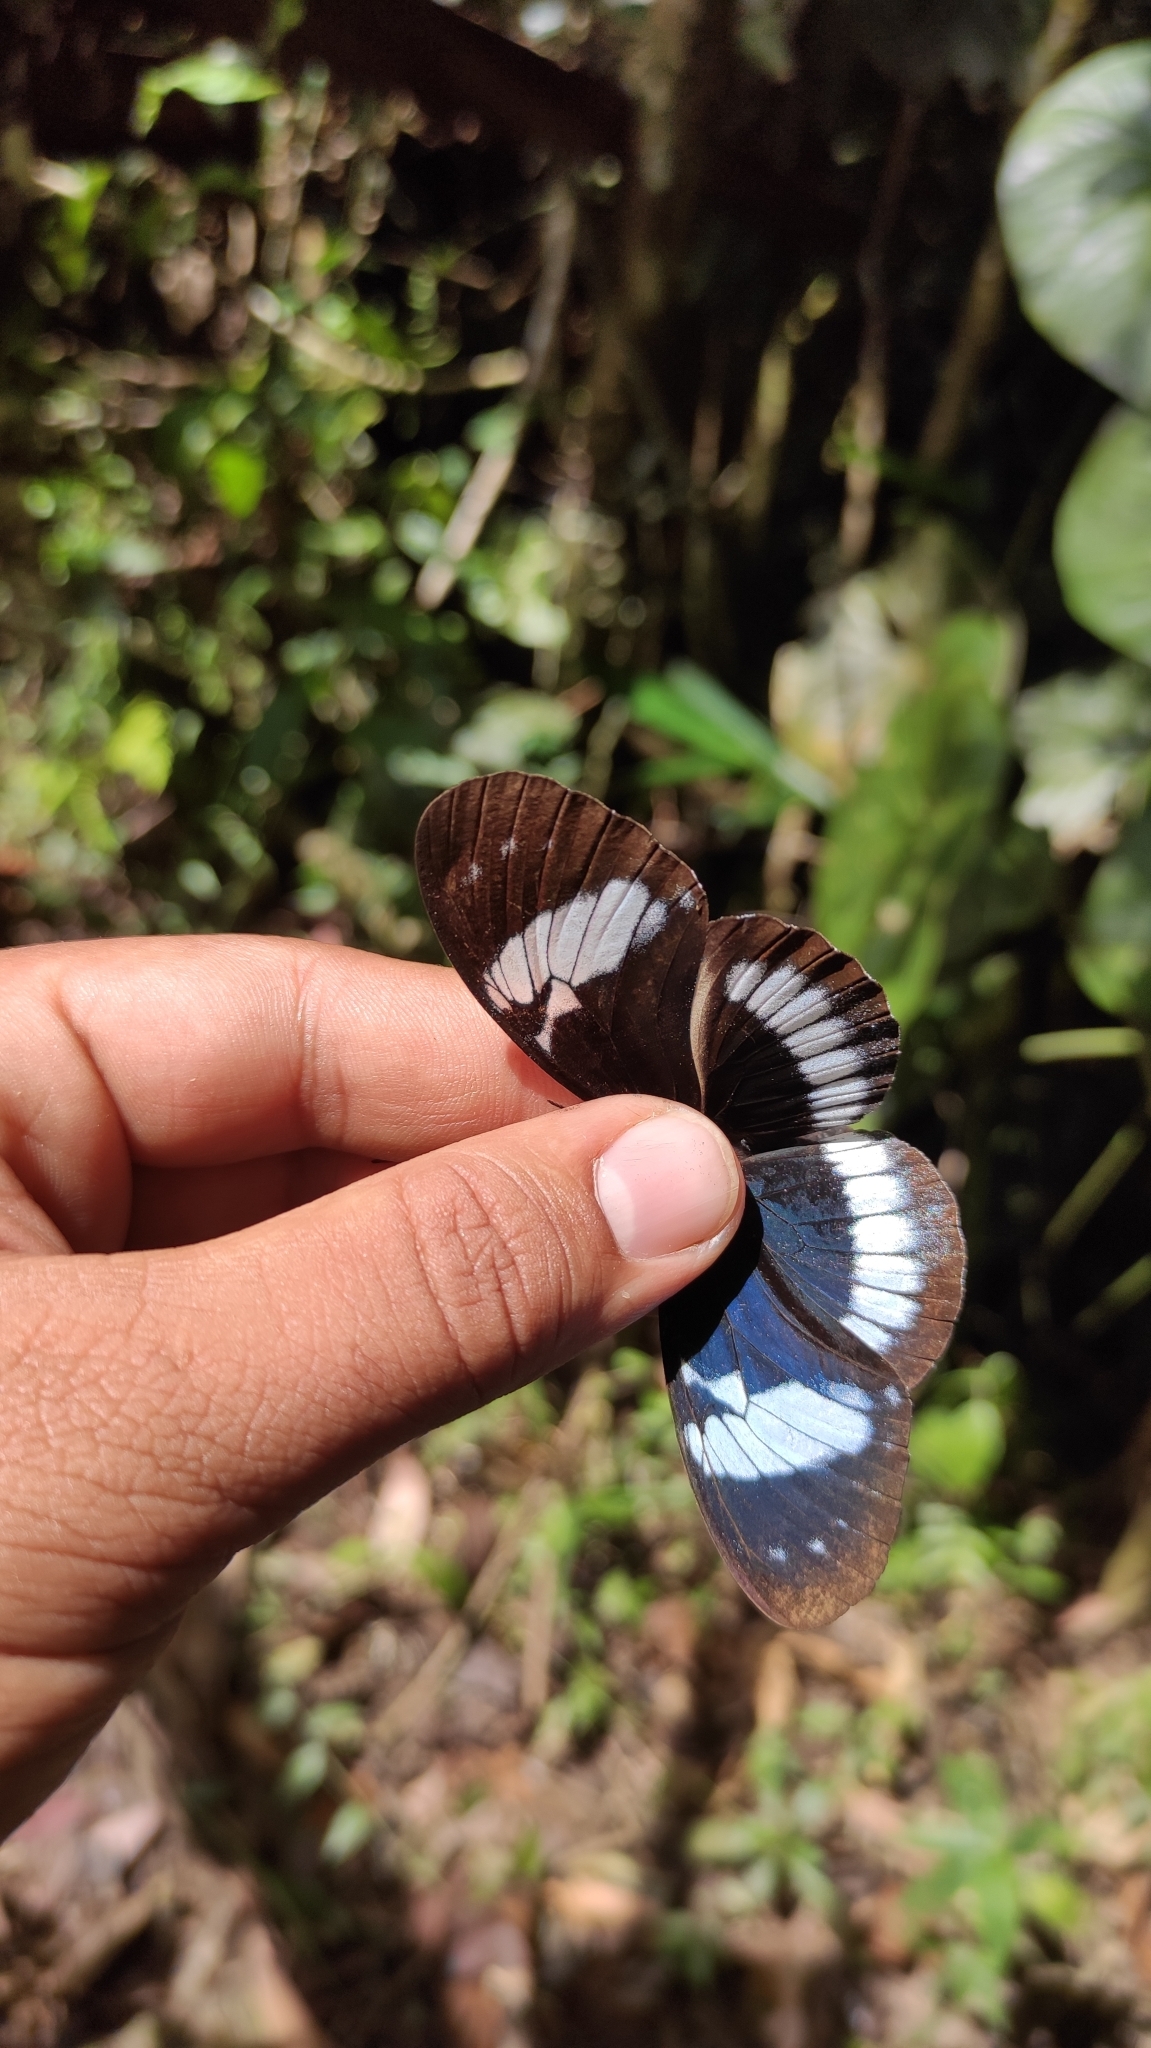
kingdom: Animalia
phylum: Arthropoda
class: Insecta
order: Lepidoptera
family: Nymphalidae
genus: Heliconius
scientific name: Heliconius cydno
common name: Cydno longwing
